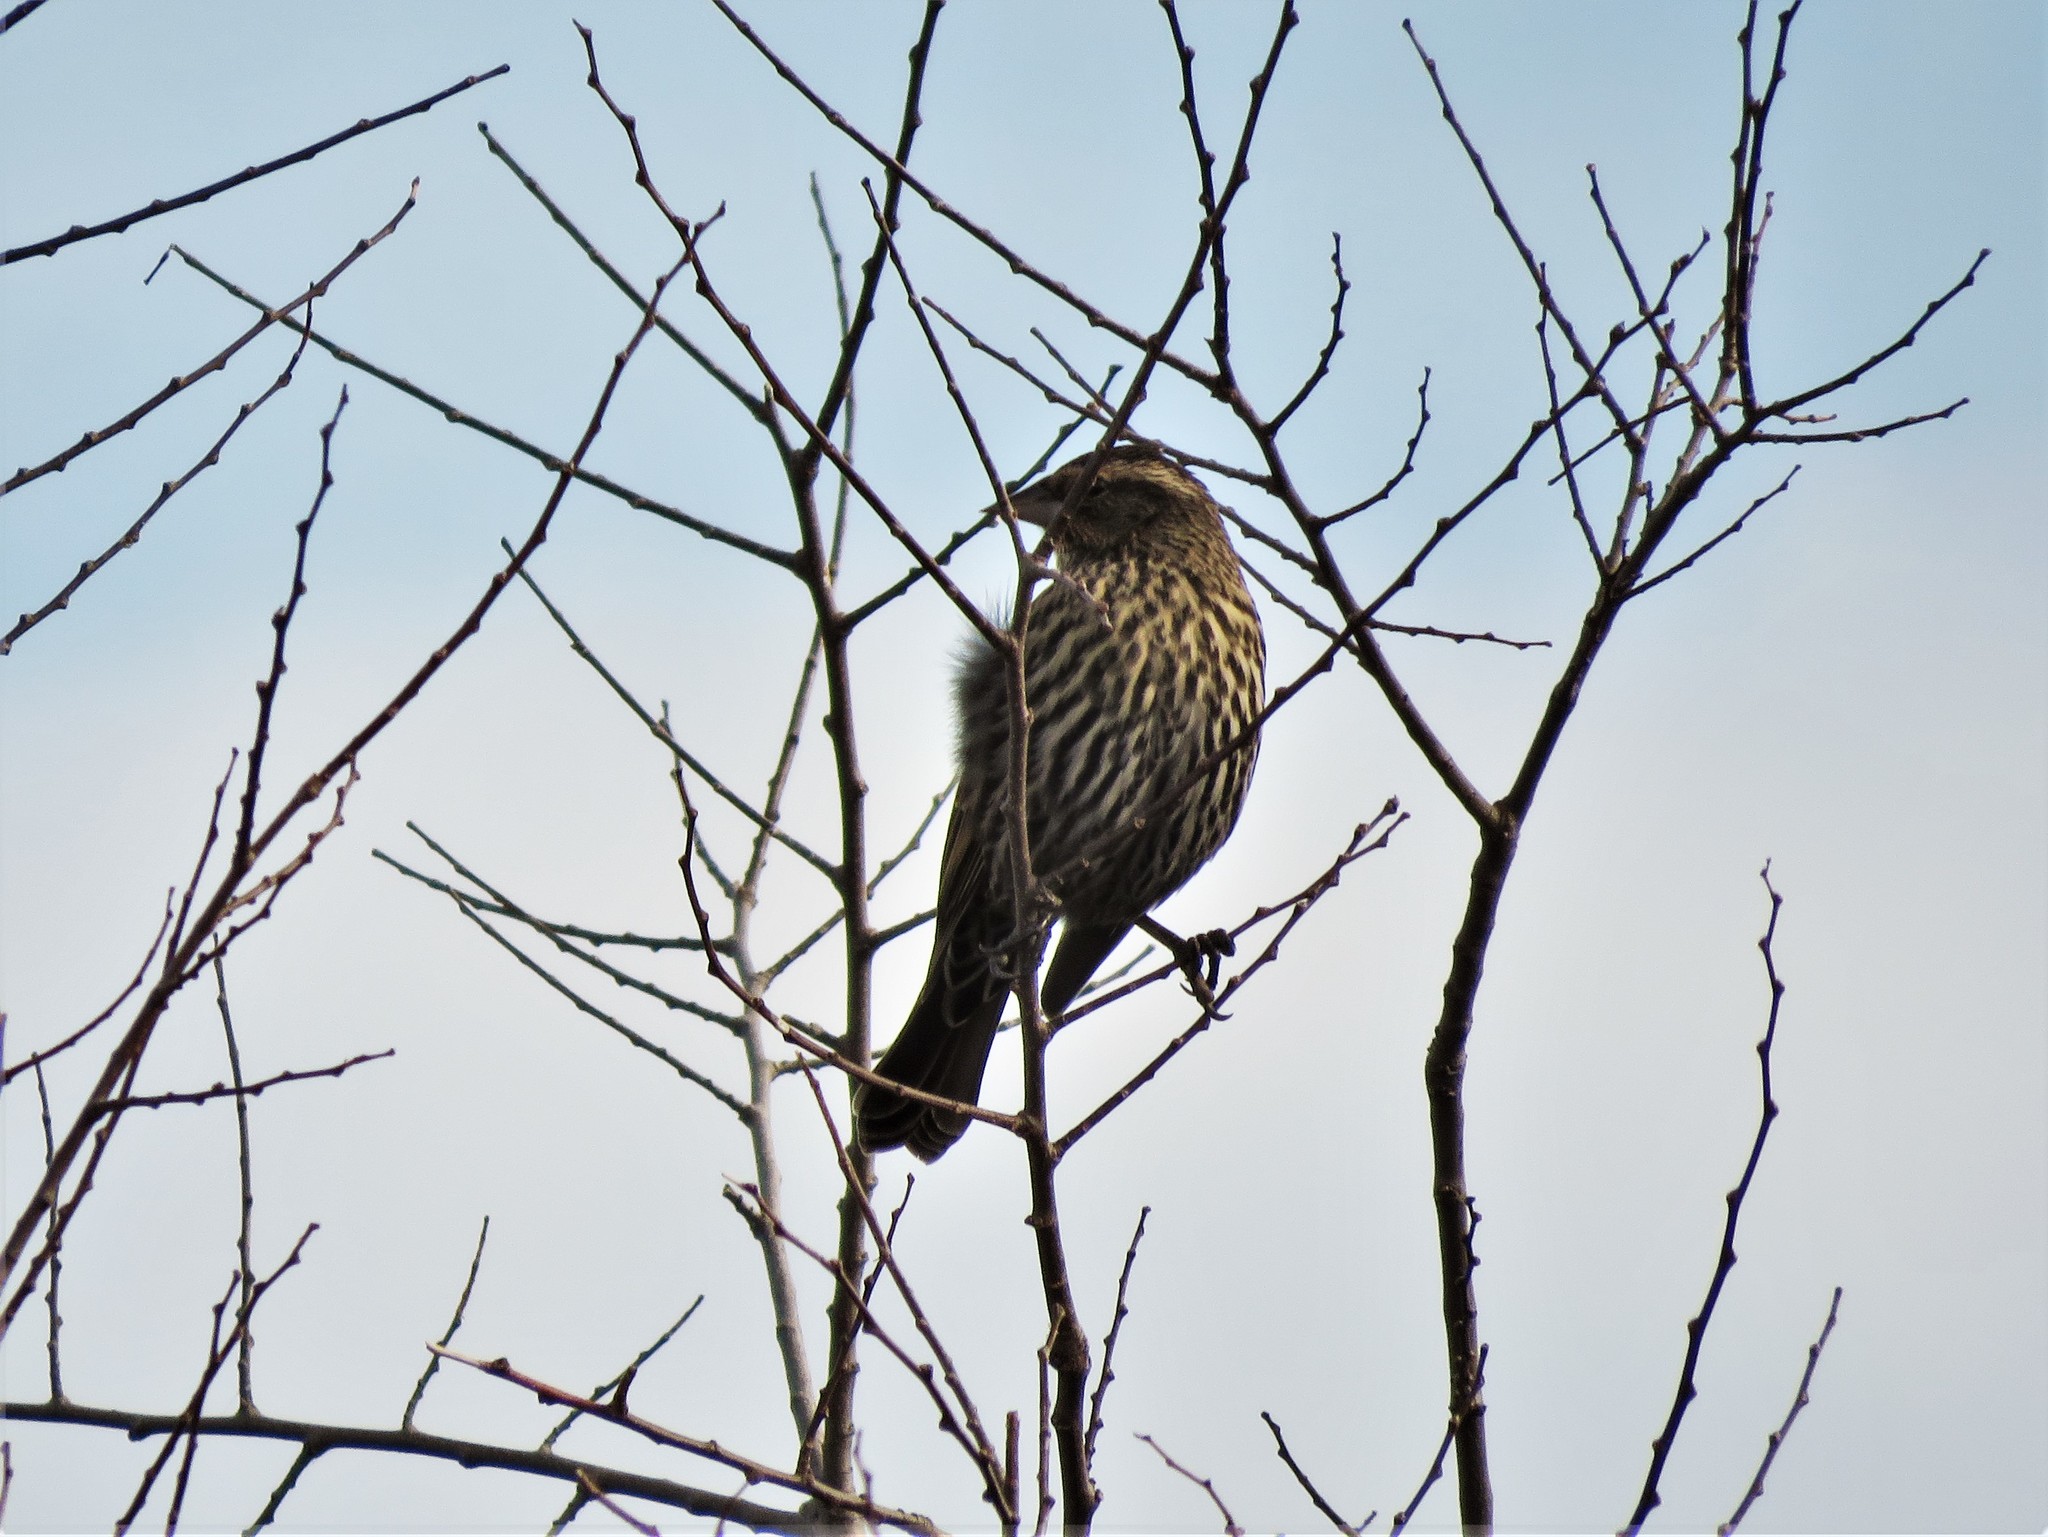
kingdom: Animalia
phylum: Chordata
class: Aves
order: Passeriformes
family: Icteridae
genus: Agelaius
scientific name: Agelaius phoeniceus
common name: Red-winged blackbird
